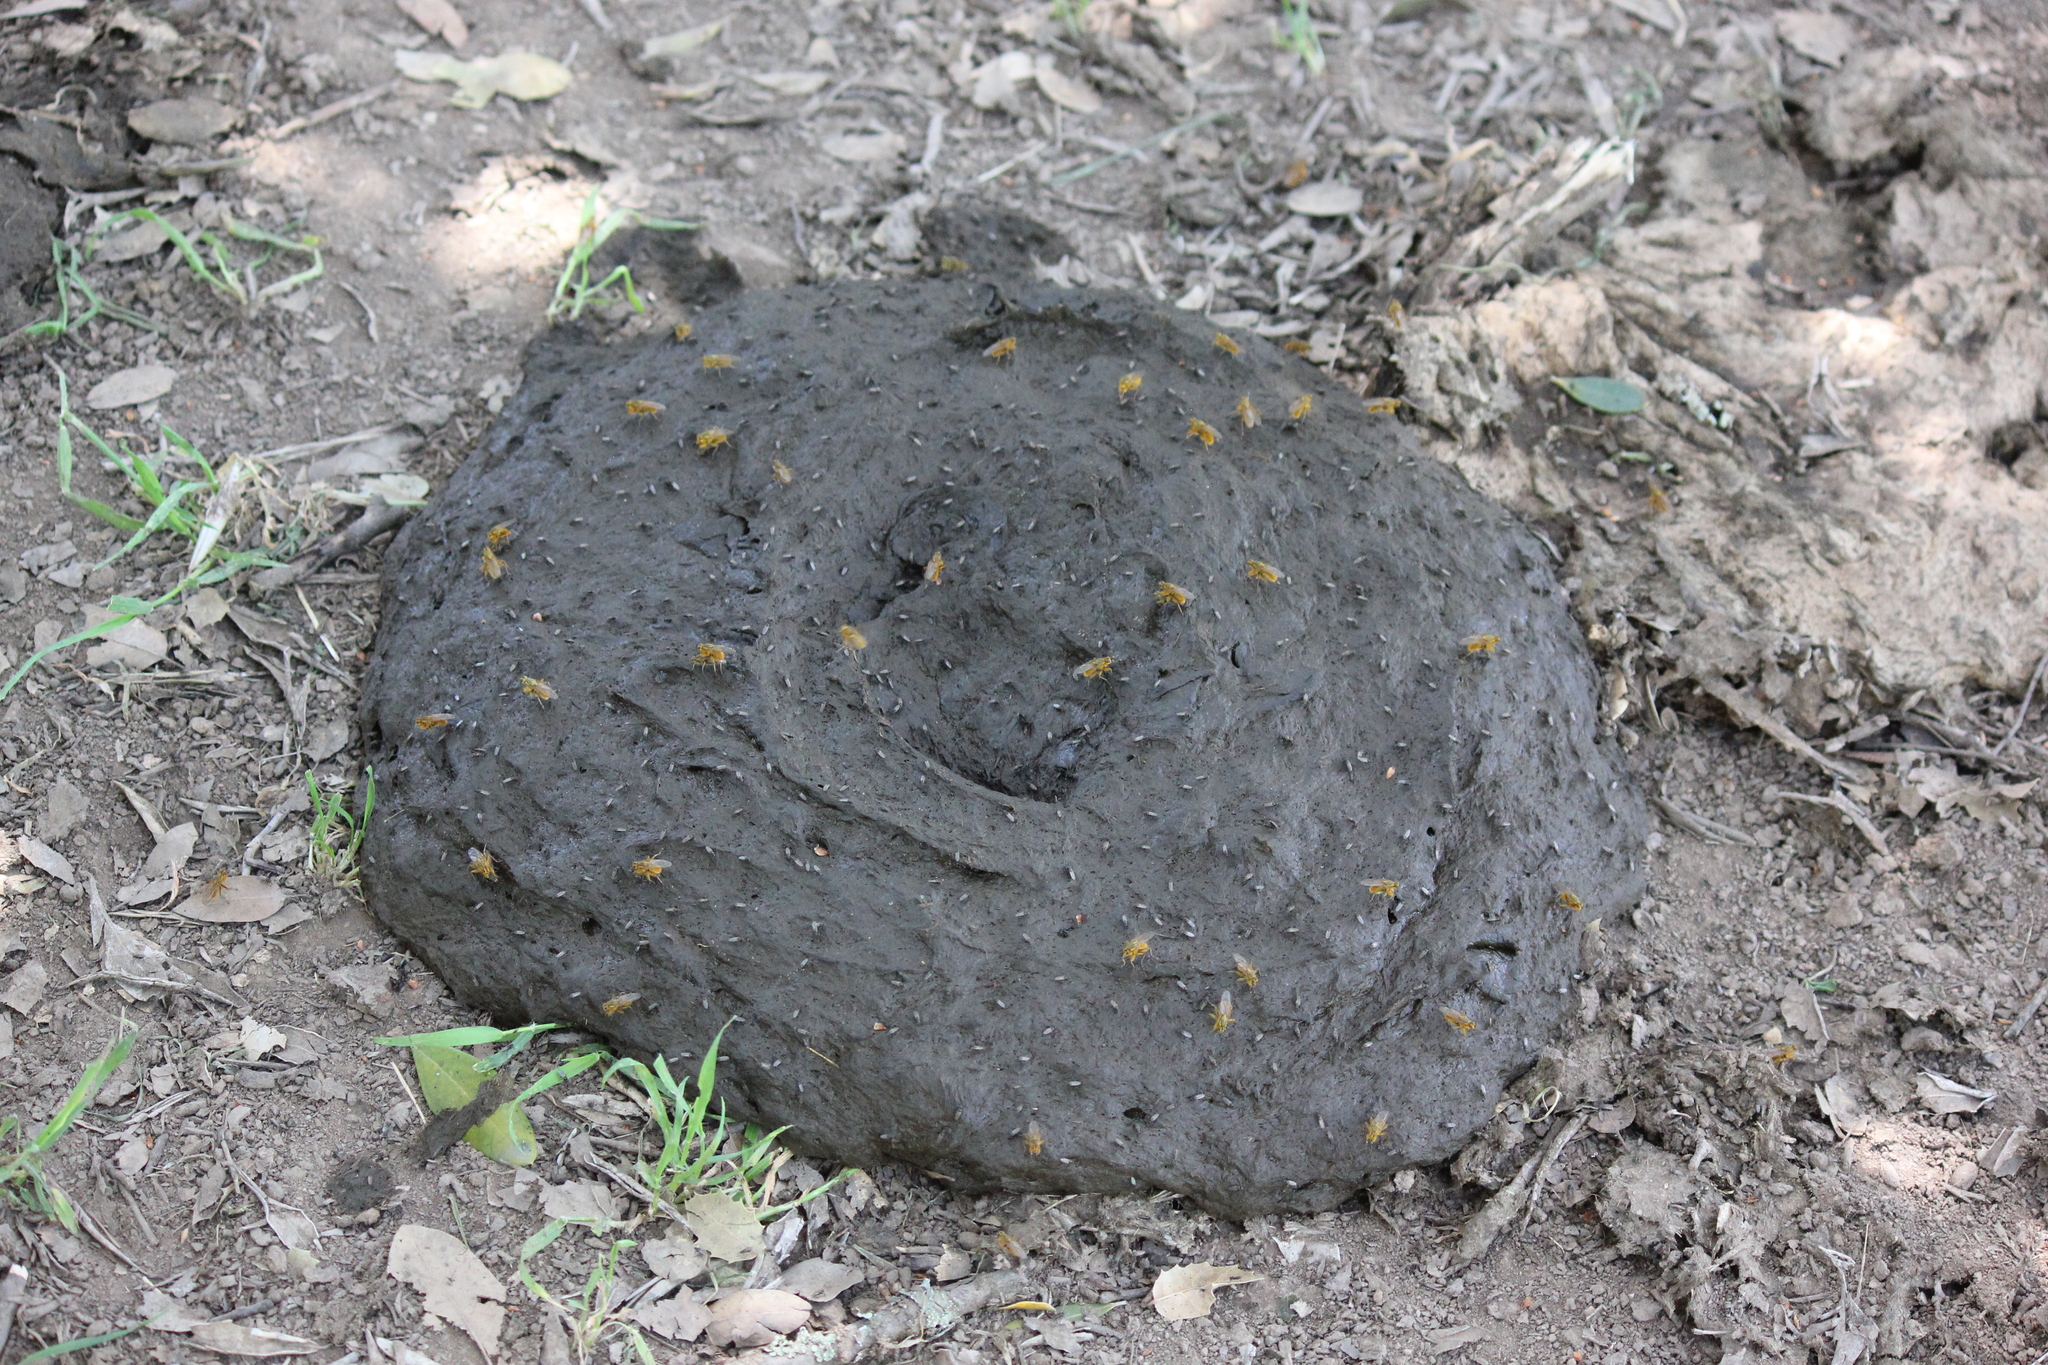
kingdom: Animalia
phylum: Arthropoda
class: Insecta
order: Diptera
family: Scathophagidae
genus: Scathophaga
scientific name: Scathophaga stercoraria
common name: Yellow dung fly
